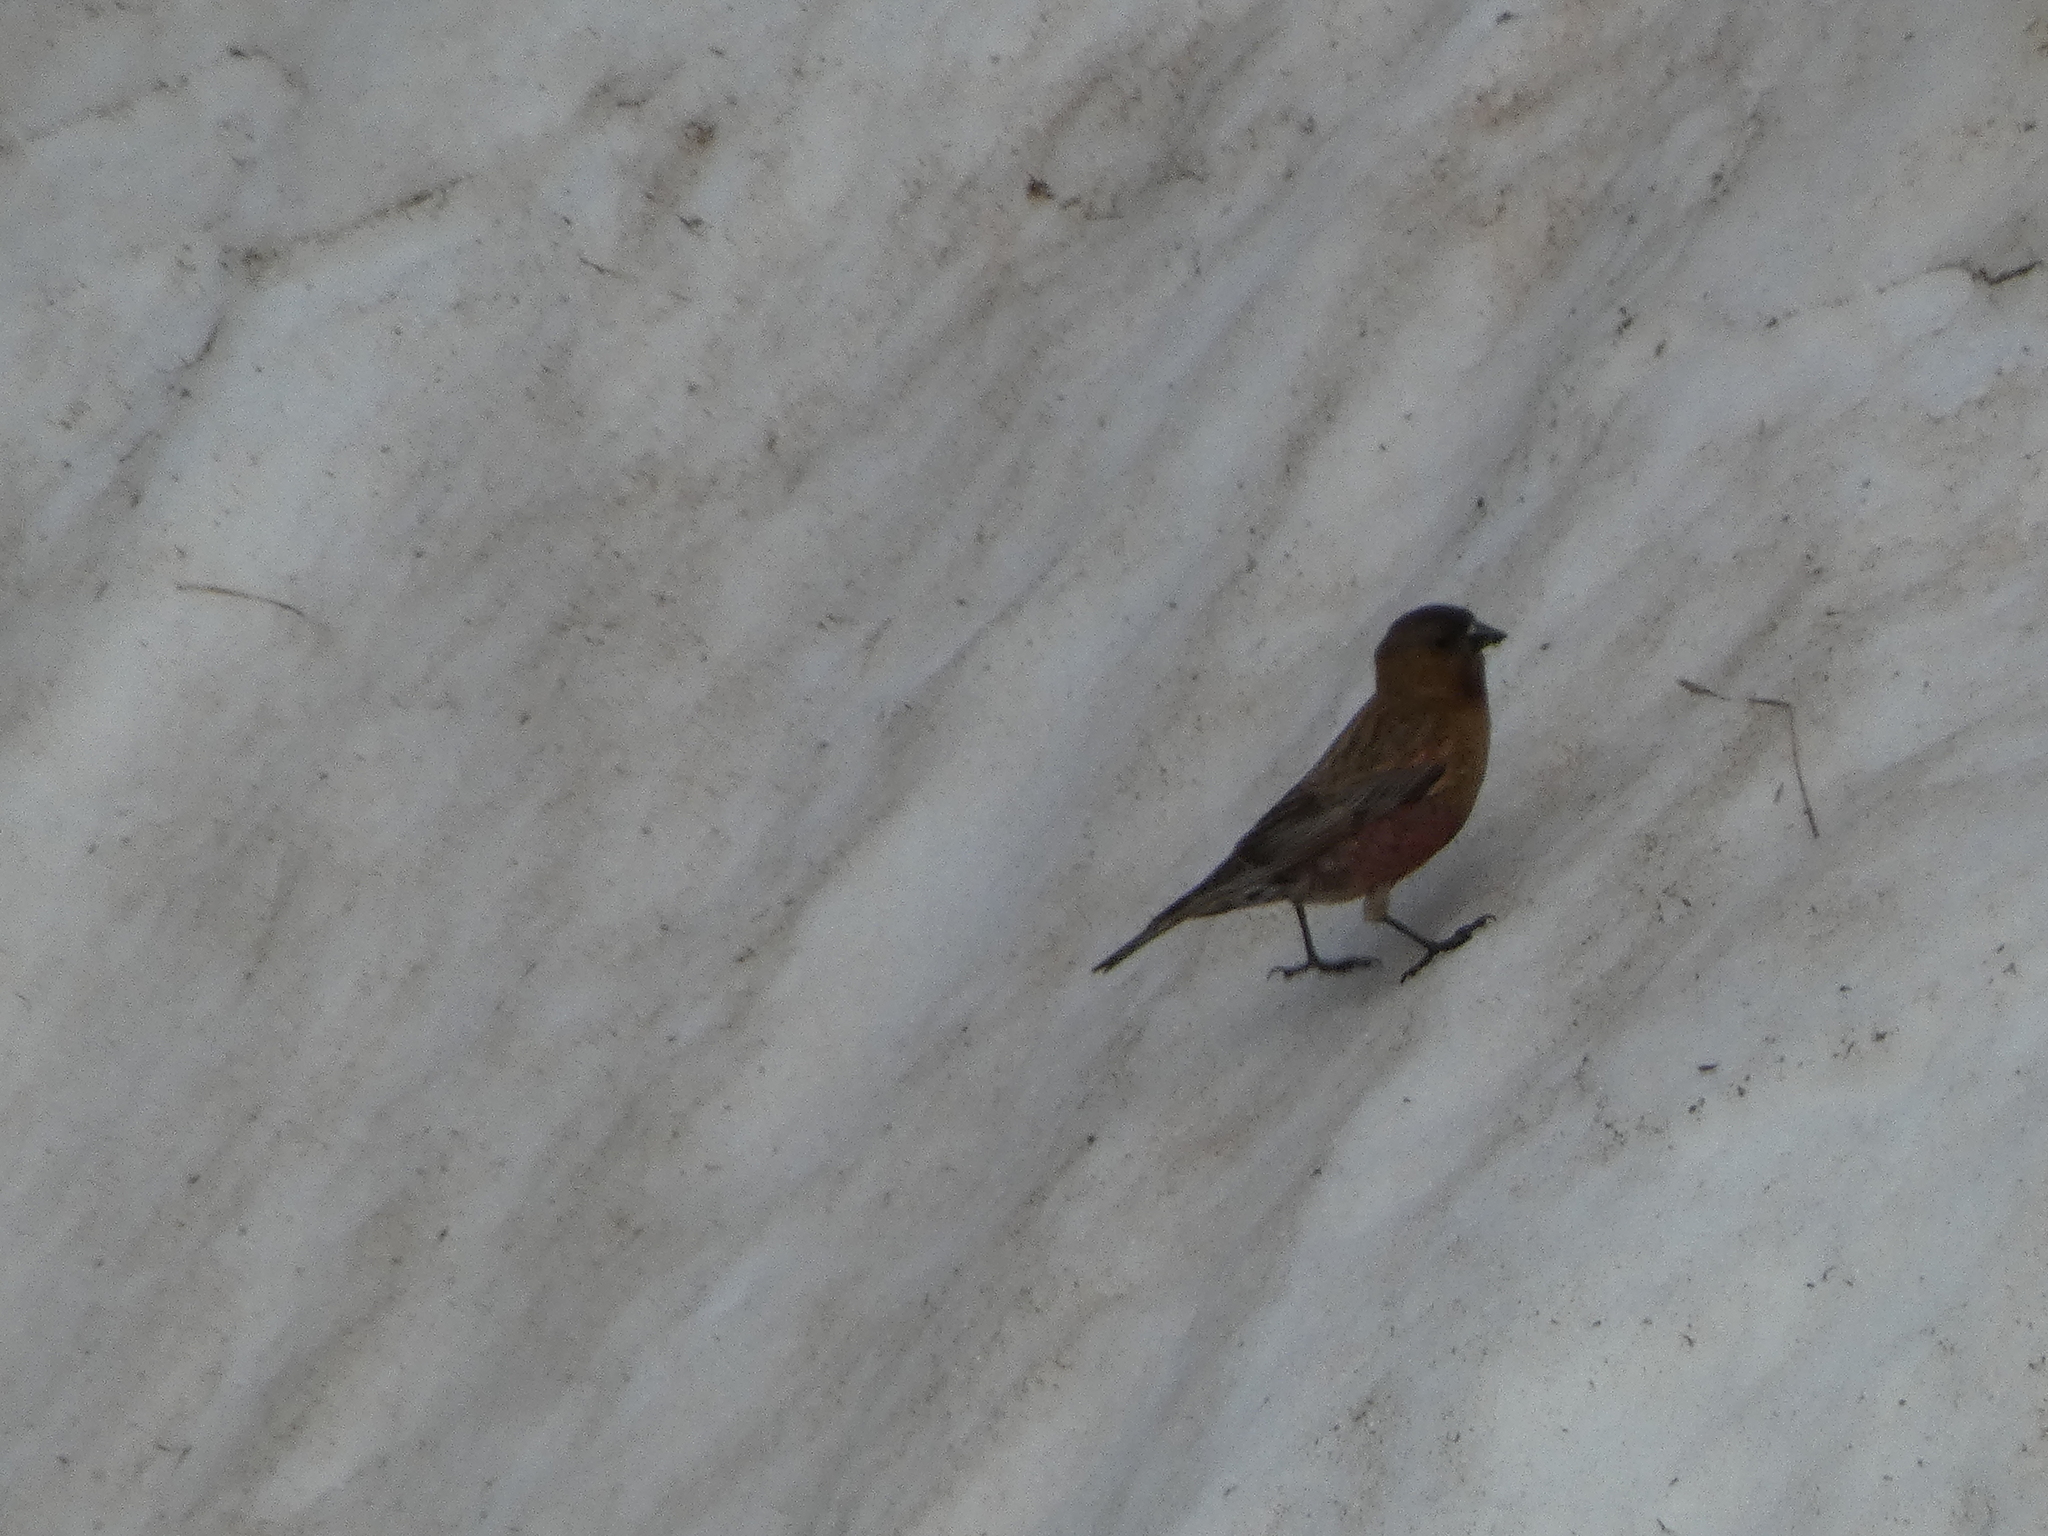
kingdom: Animalia
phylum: Chordata
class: Aves
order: Passeriformes
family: Fringillidae
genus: Leucosticte
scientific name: Leucosticte australis
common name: Brown-capped rosy-finch
